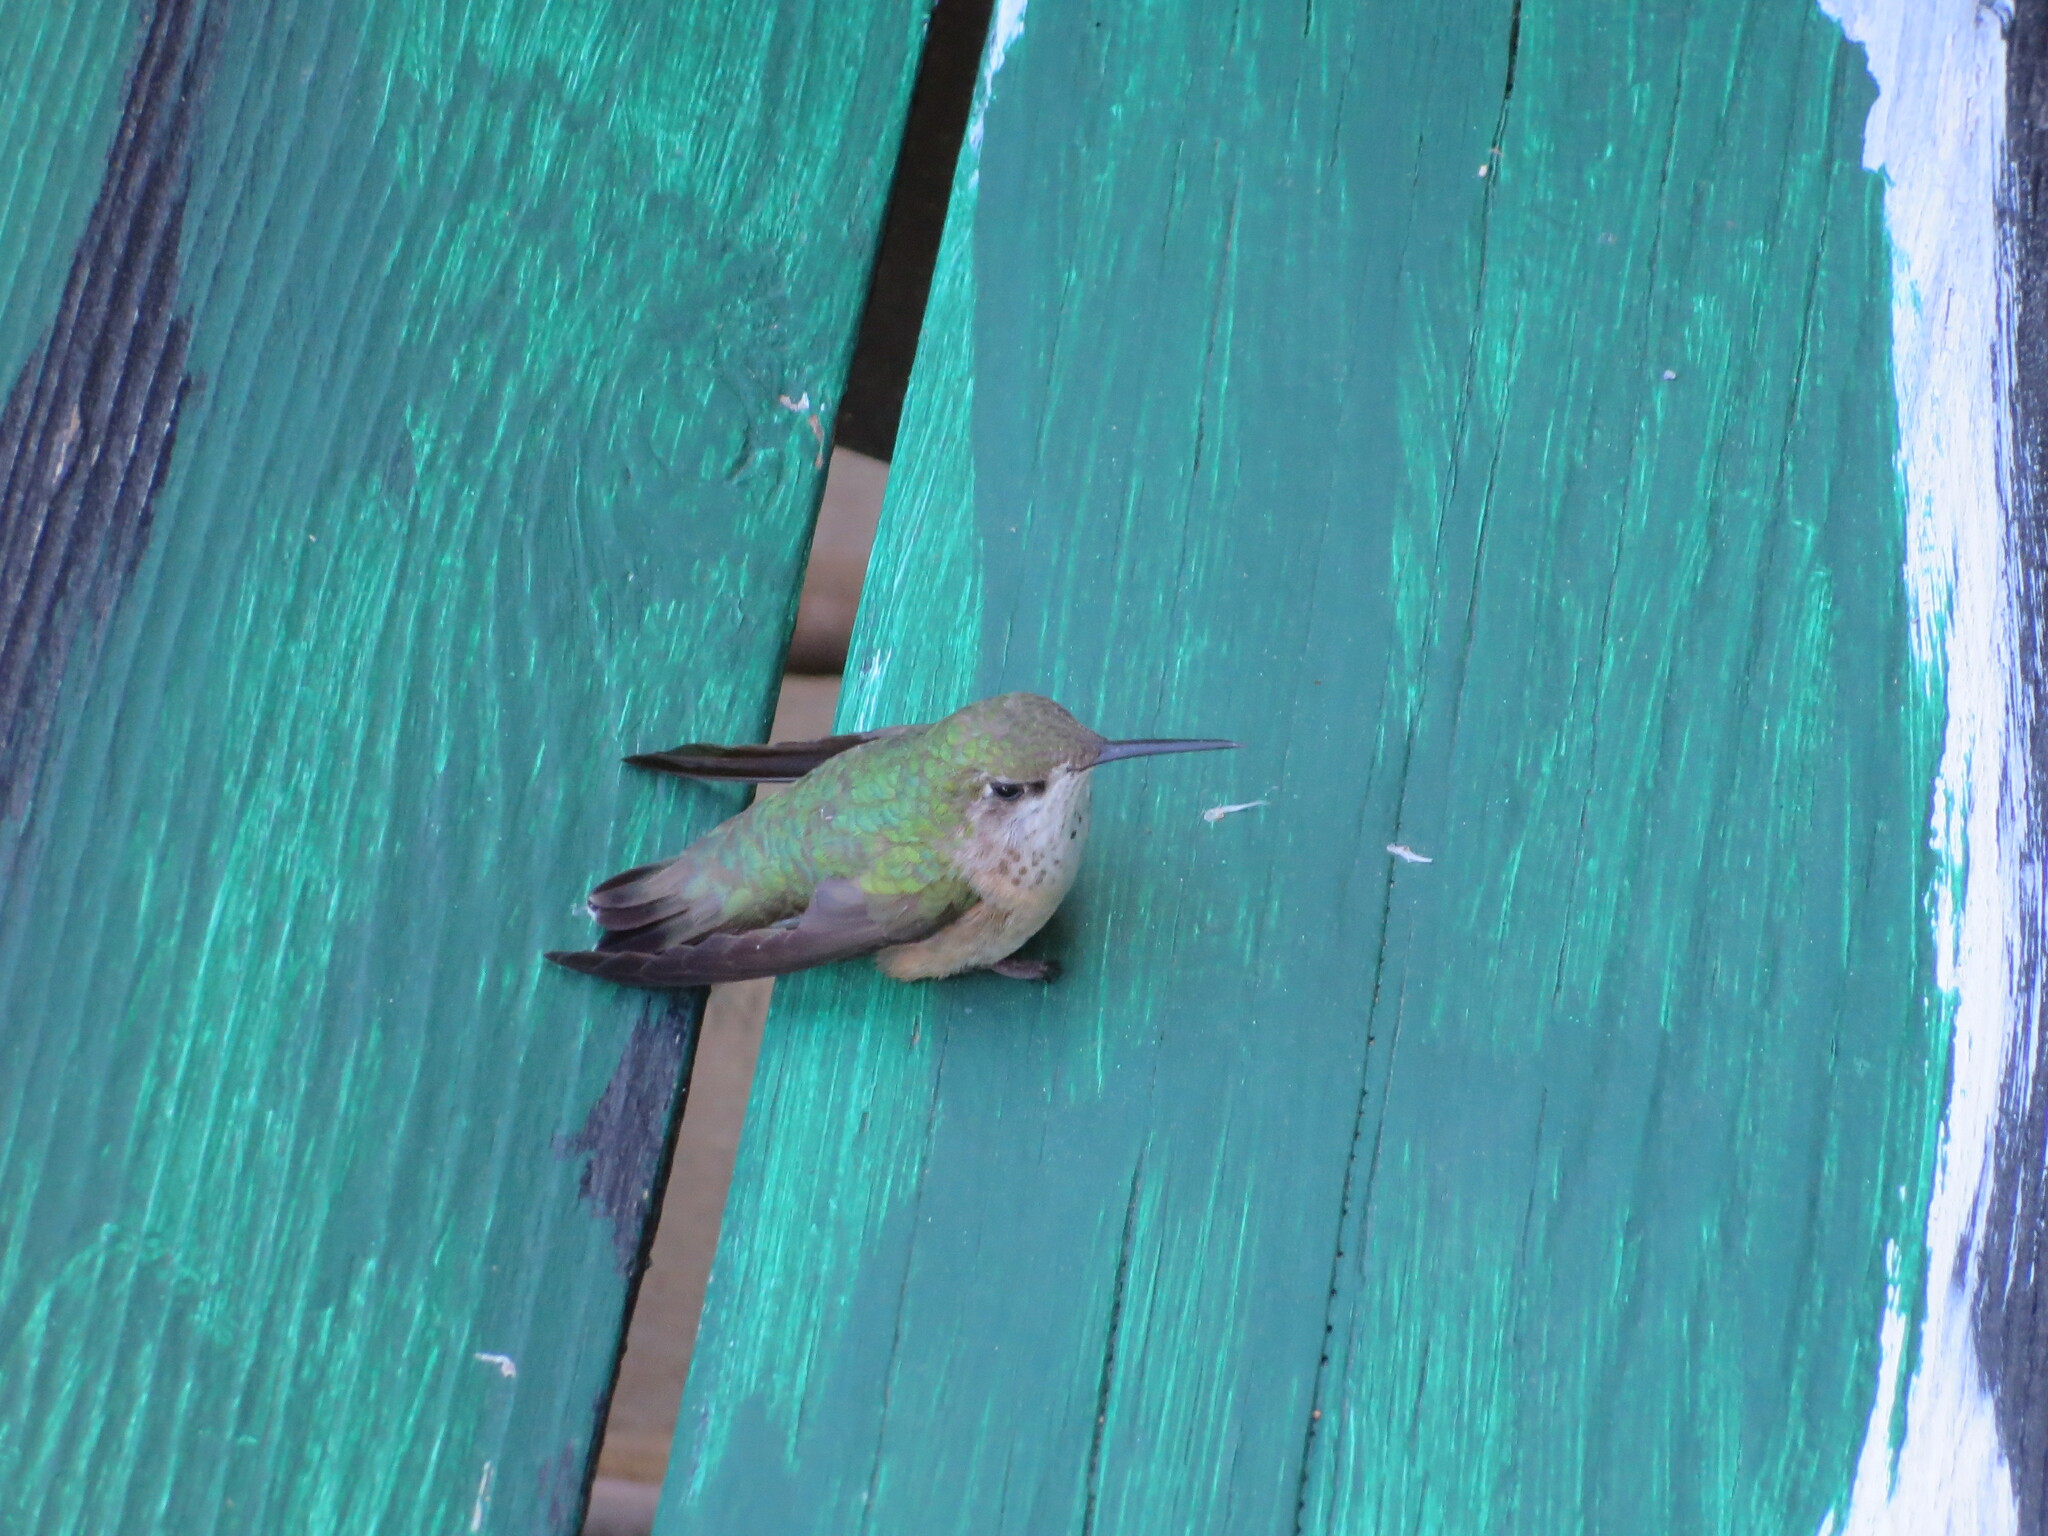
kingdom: Animalia
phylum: Chordata
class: Aves
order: Apodiformes
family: Trochilidae
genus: Selasphorus
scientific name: Selasphorus calliope
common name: Calliope hummingbird
